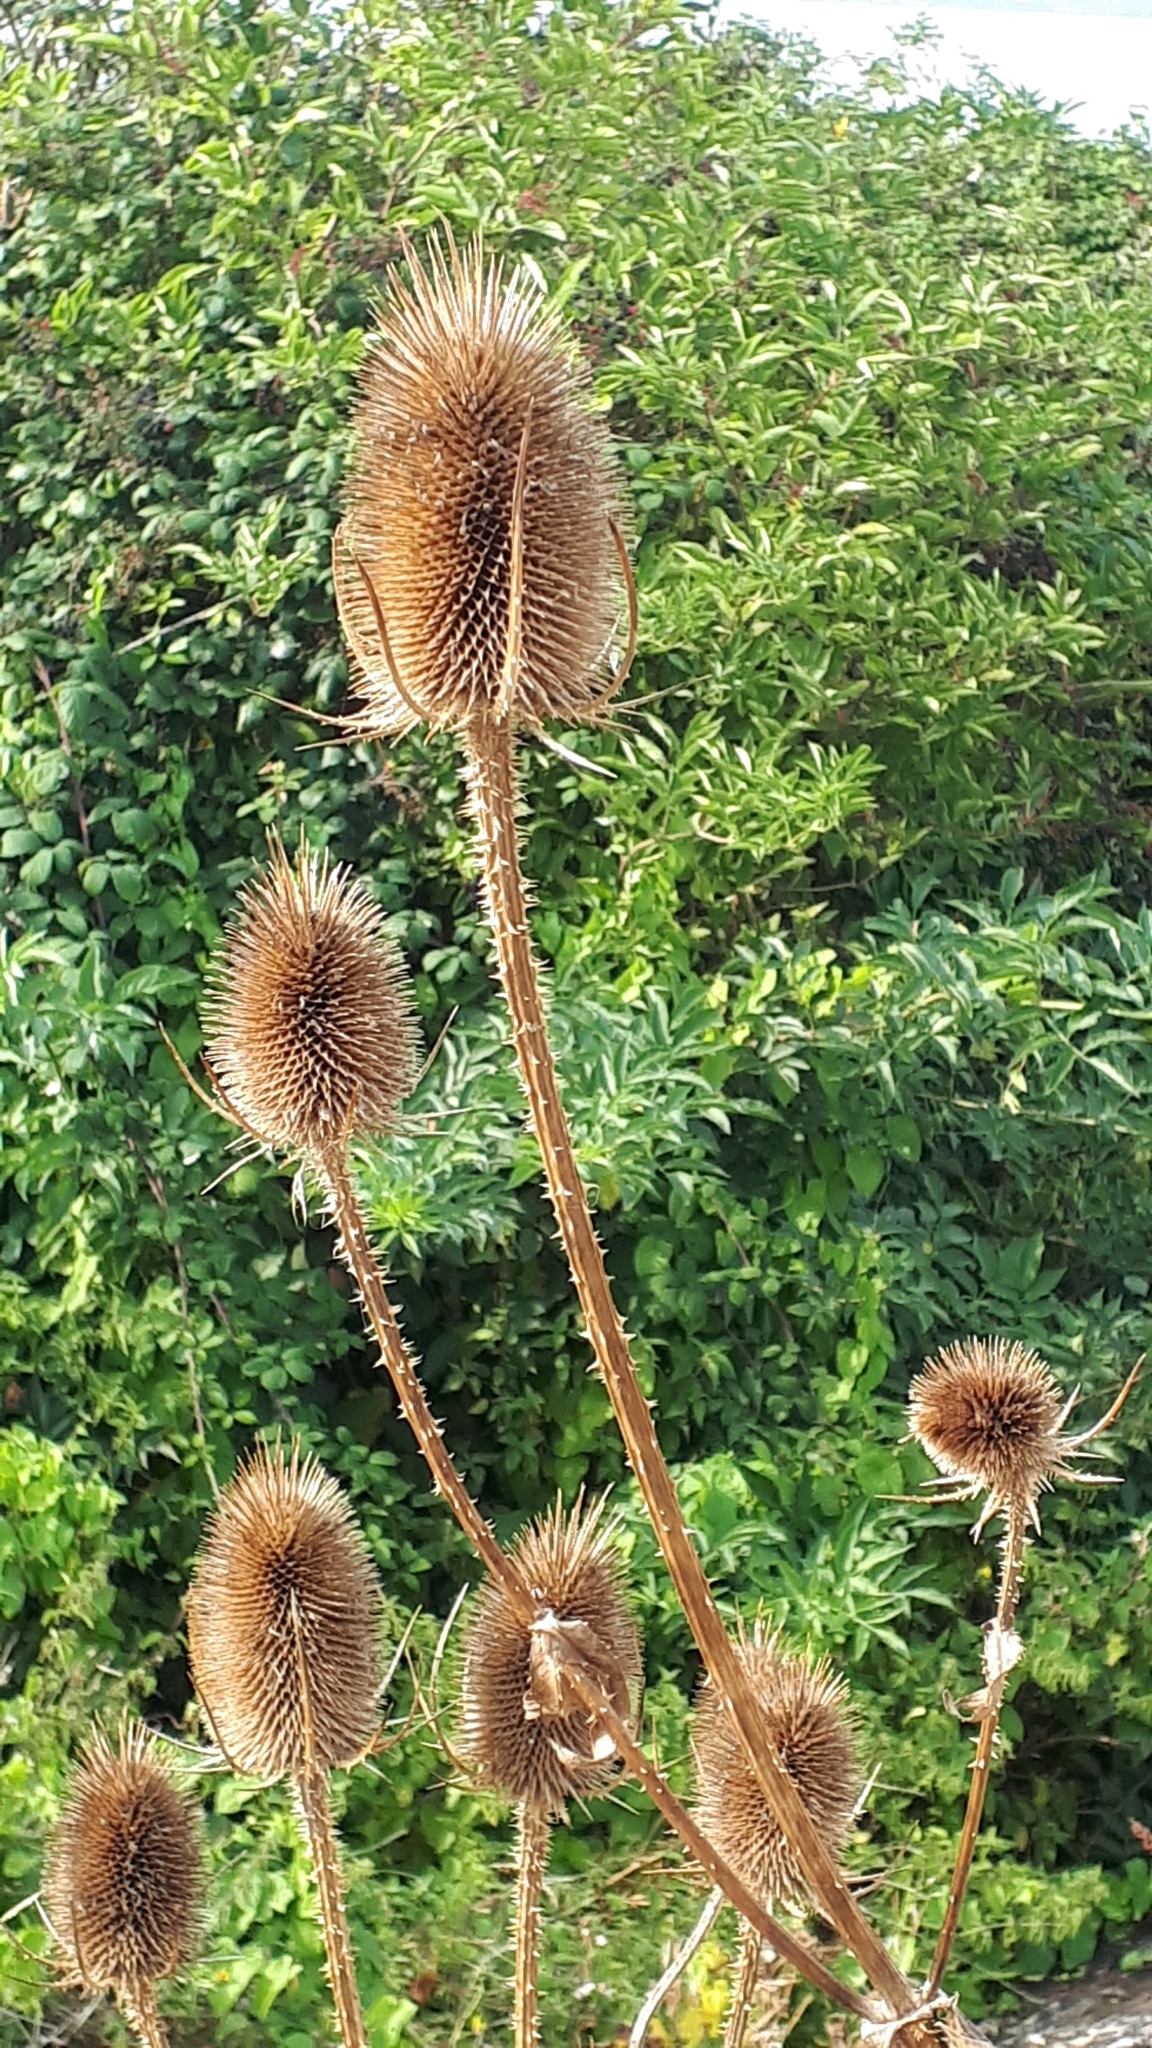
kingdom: Plantae
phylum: Tracheophyta
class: Magnoliopsida
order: Dipsacales
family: Caprifoliaceae
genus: Dipsacus
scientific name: Dipsacus fullonum
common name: Teasel
